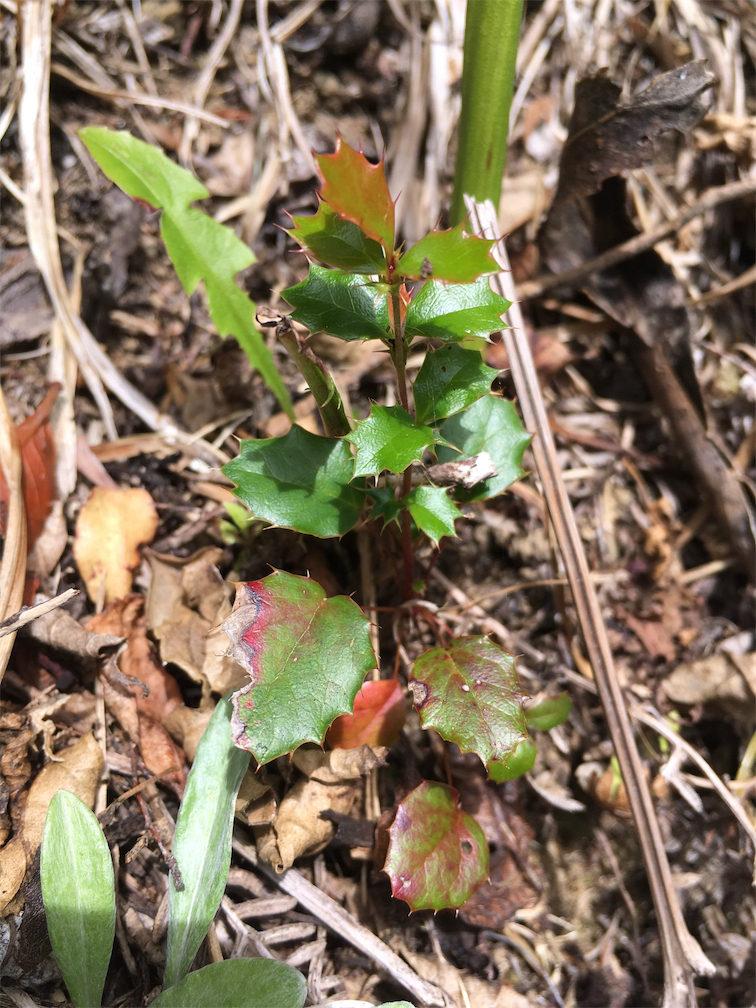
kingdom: Plantae
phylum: Tracheophyta
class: Magnoliopsida
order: Ranunculales
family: Berberidaceae
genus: Berberis
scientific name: Berberis darwinii
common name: Darwin's barberry
